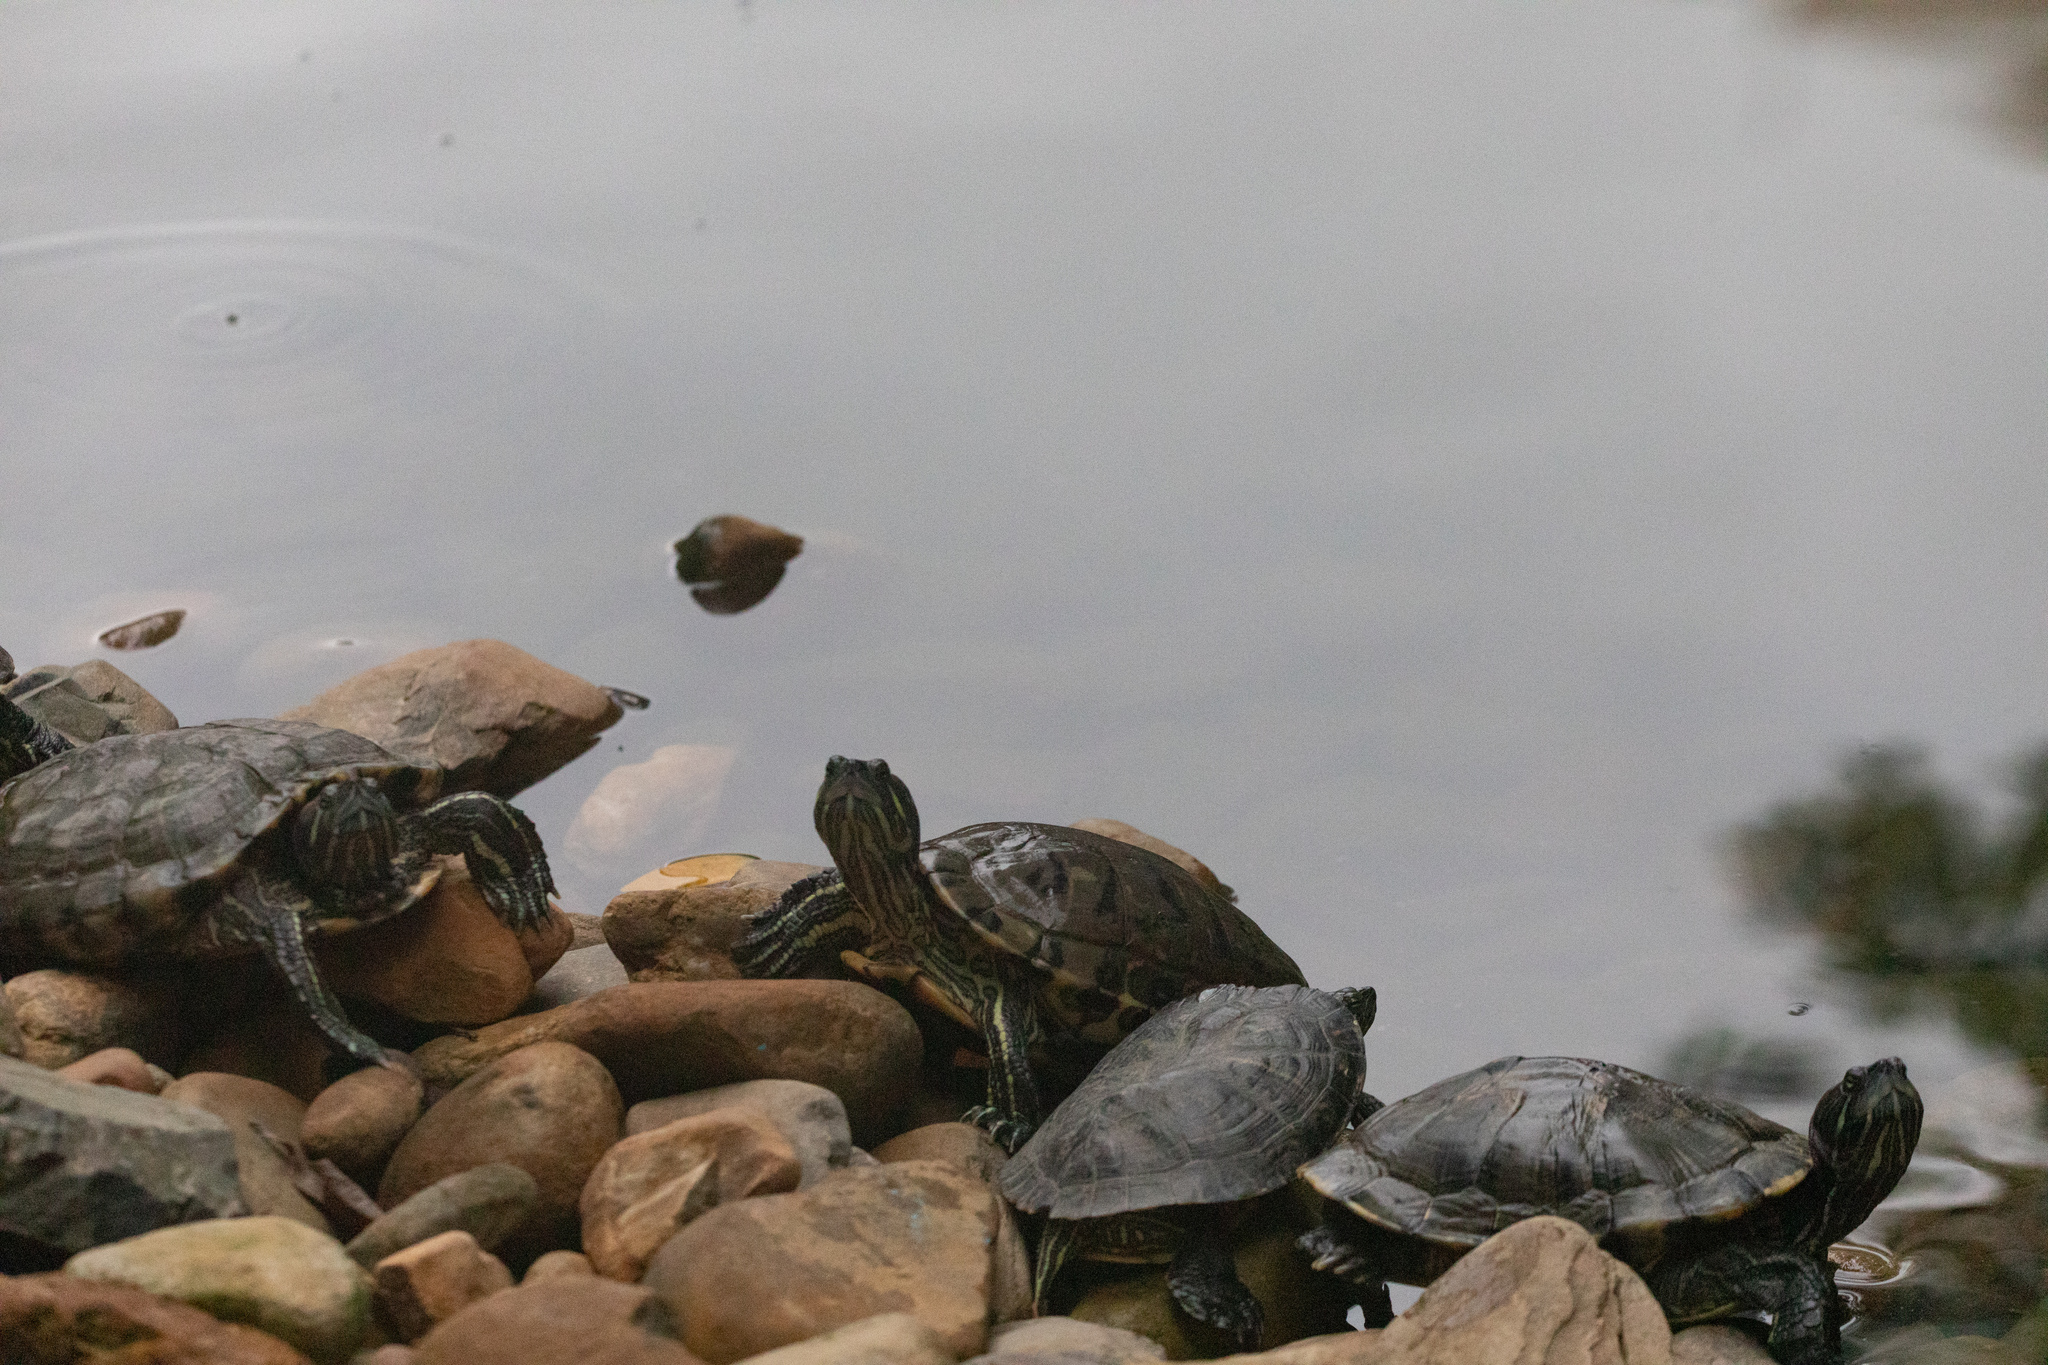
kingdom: Animalia
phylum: Chordata
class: Testudines
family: Emydidae
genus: Trachemys
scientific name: Trachemys scripta
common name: Slider
